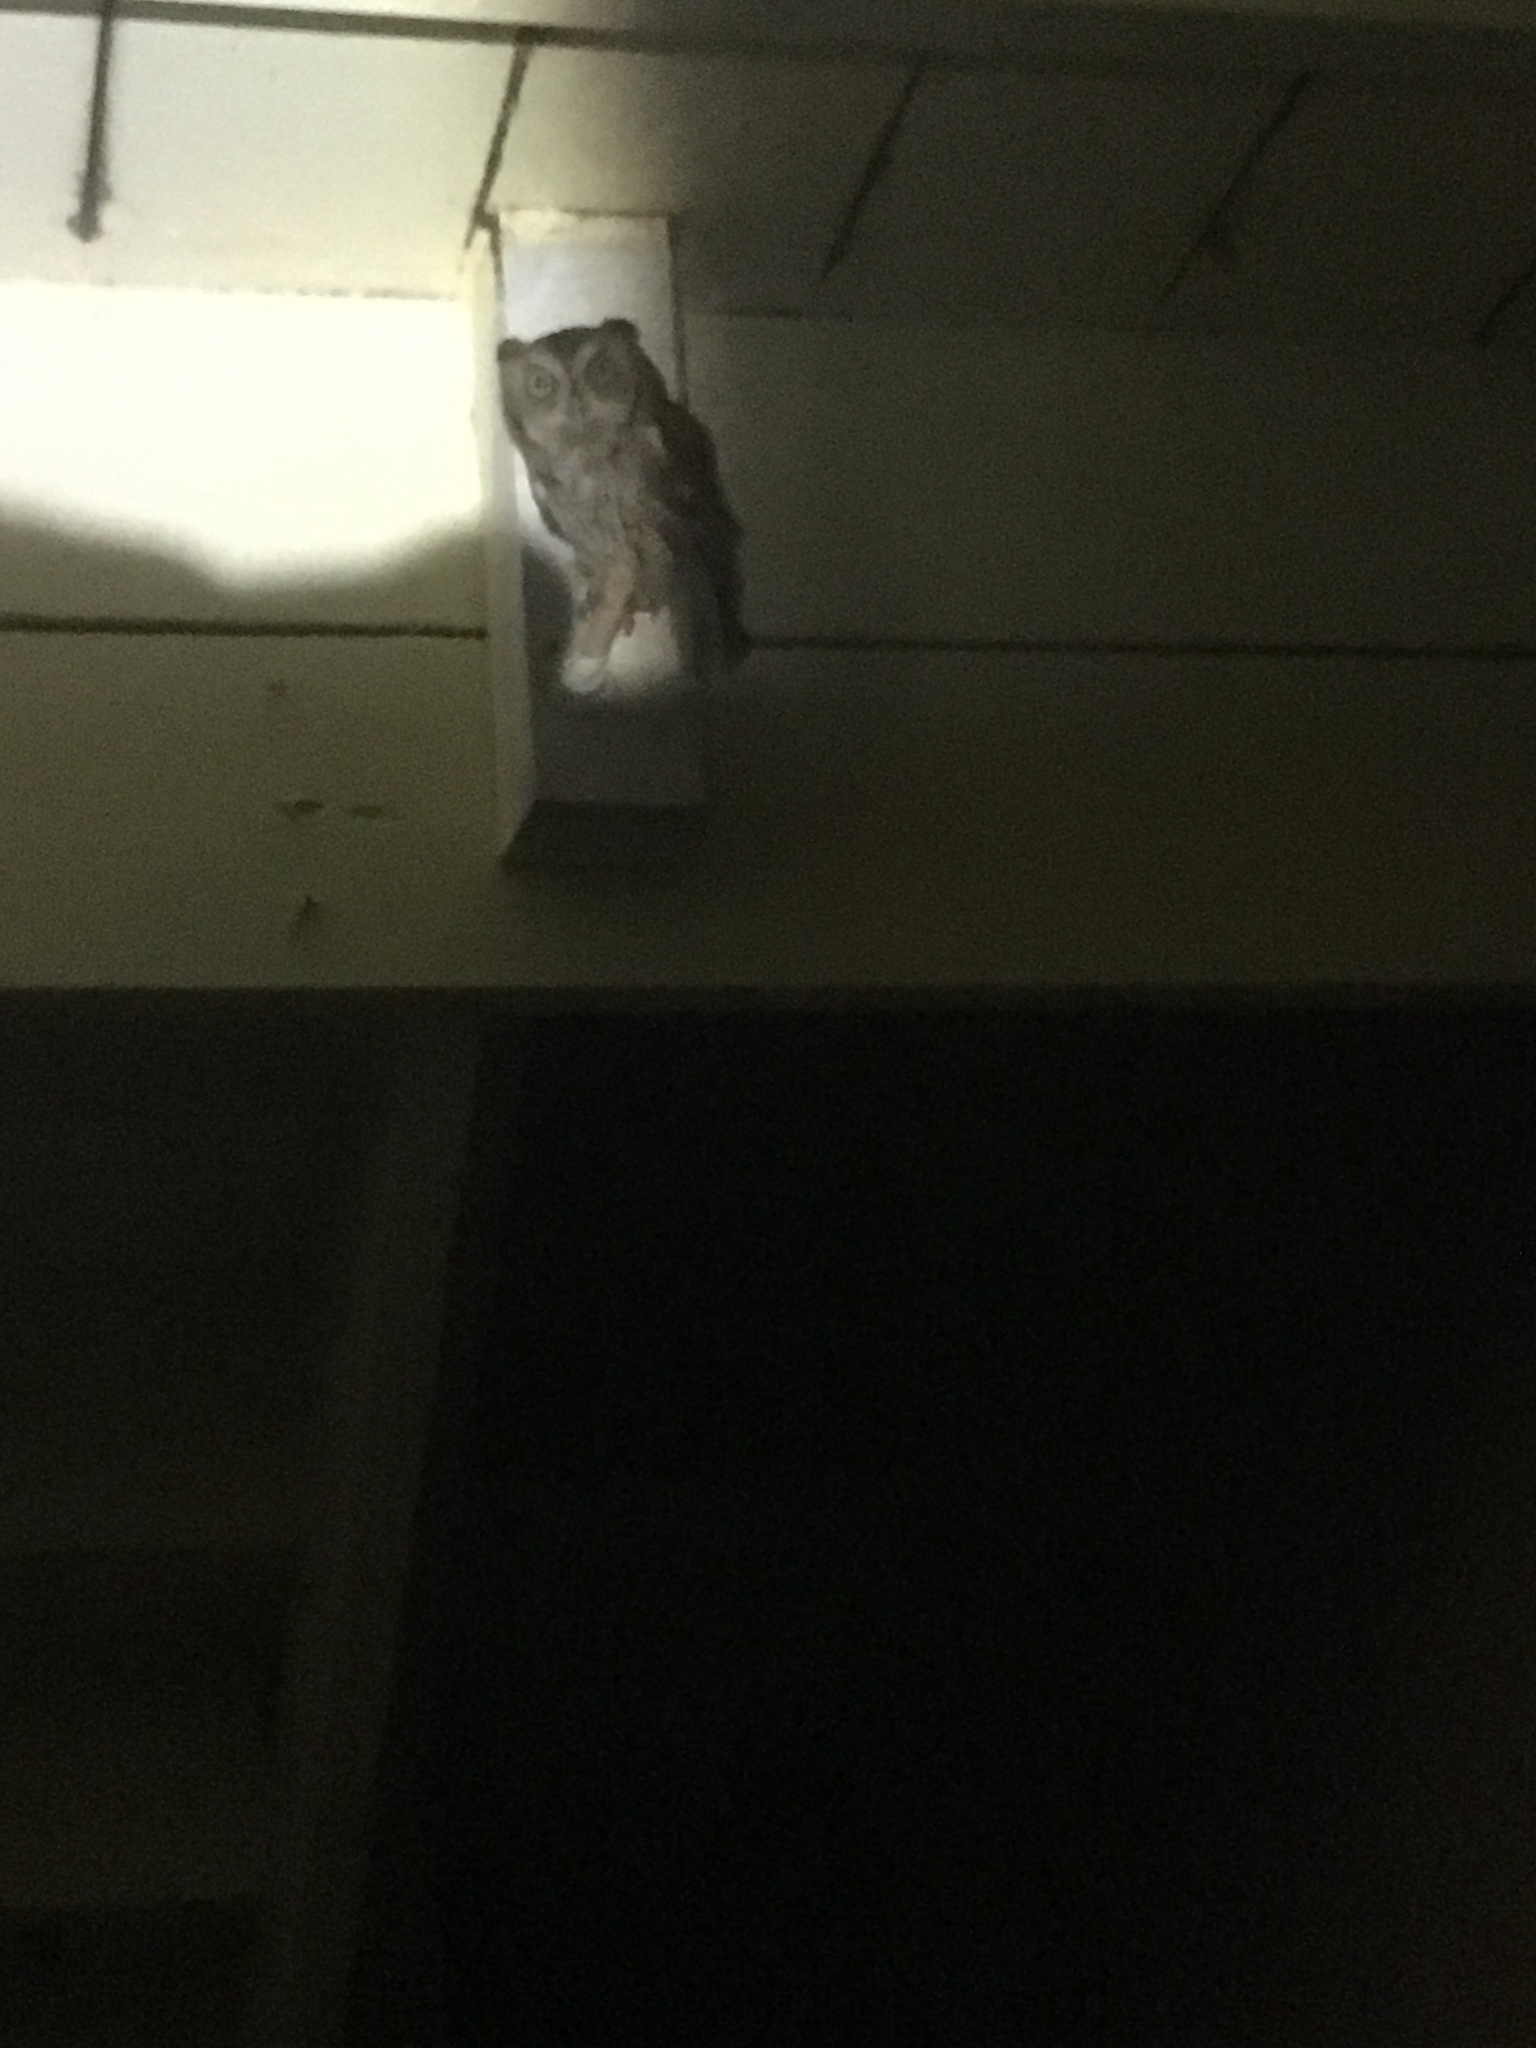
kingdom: Animalia
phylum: Chordata
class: Aves
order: Strigiformes
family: Strigidae
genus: Megascops
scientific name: Megascops asio
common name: Eastern screech-owl
